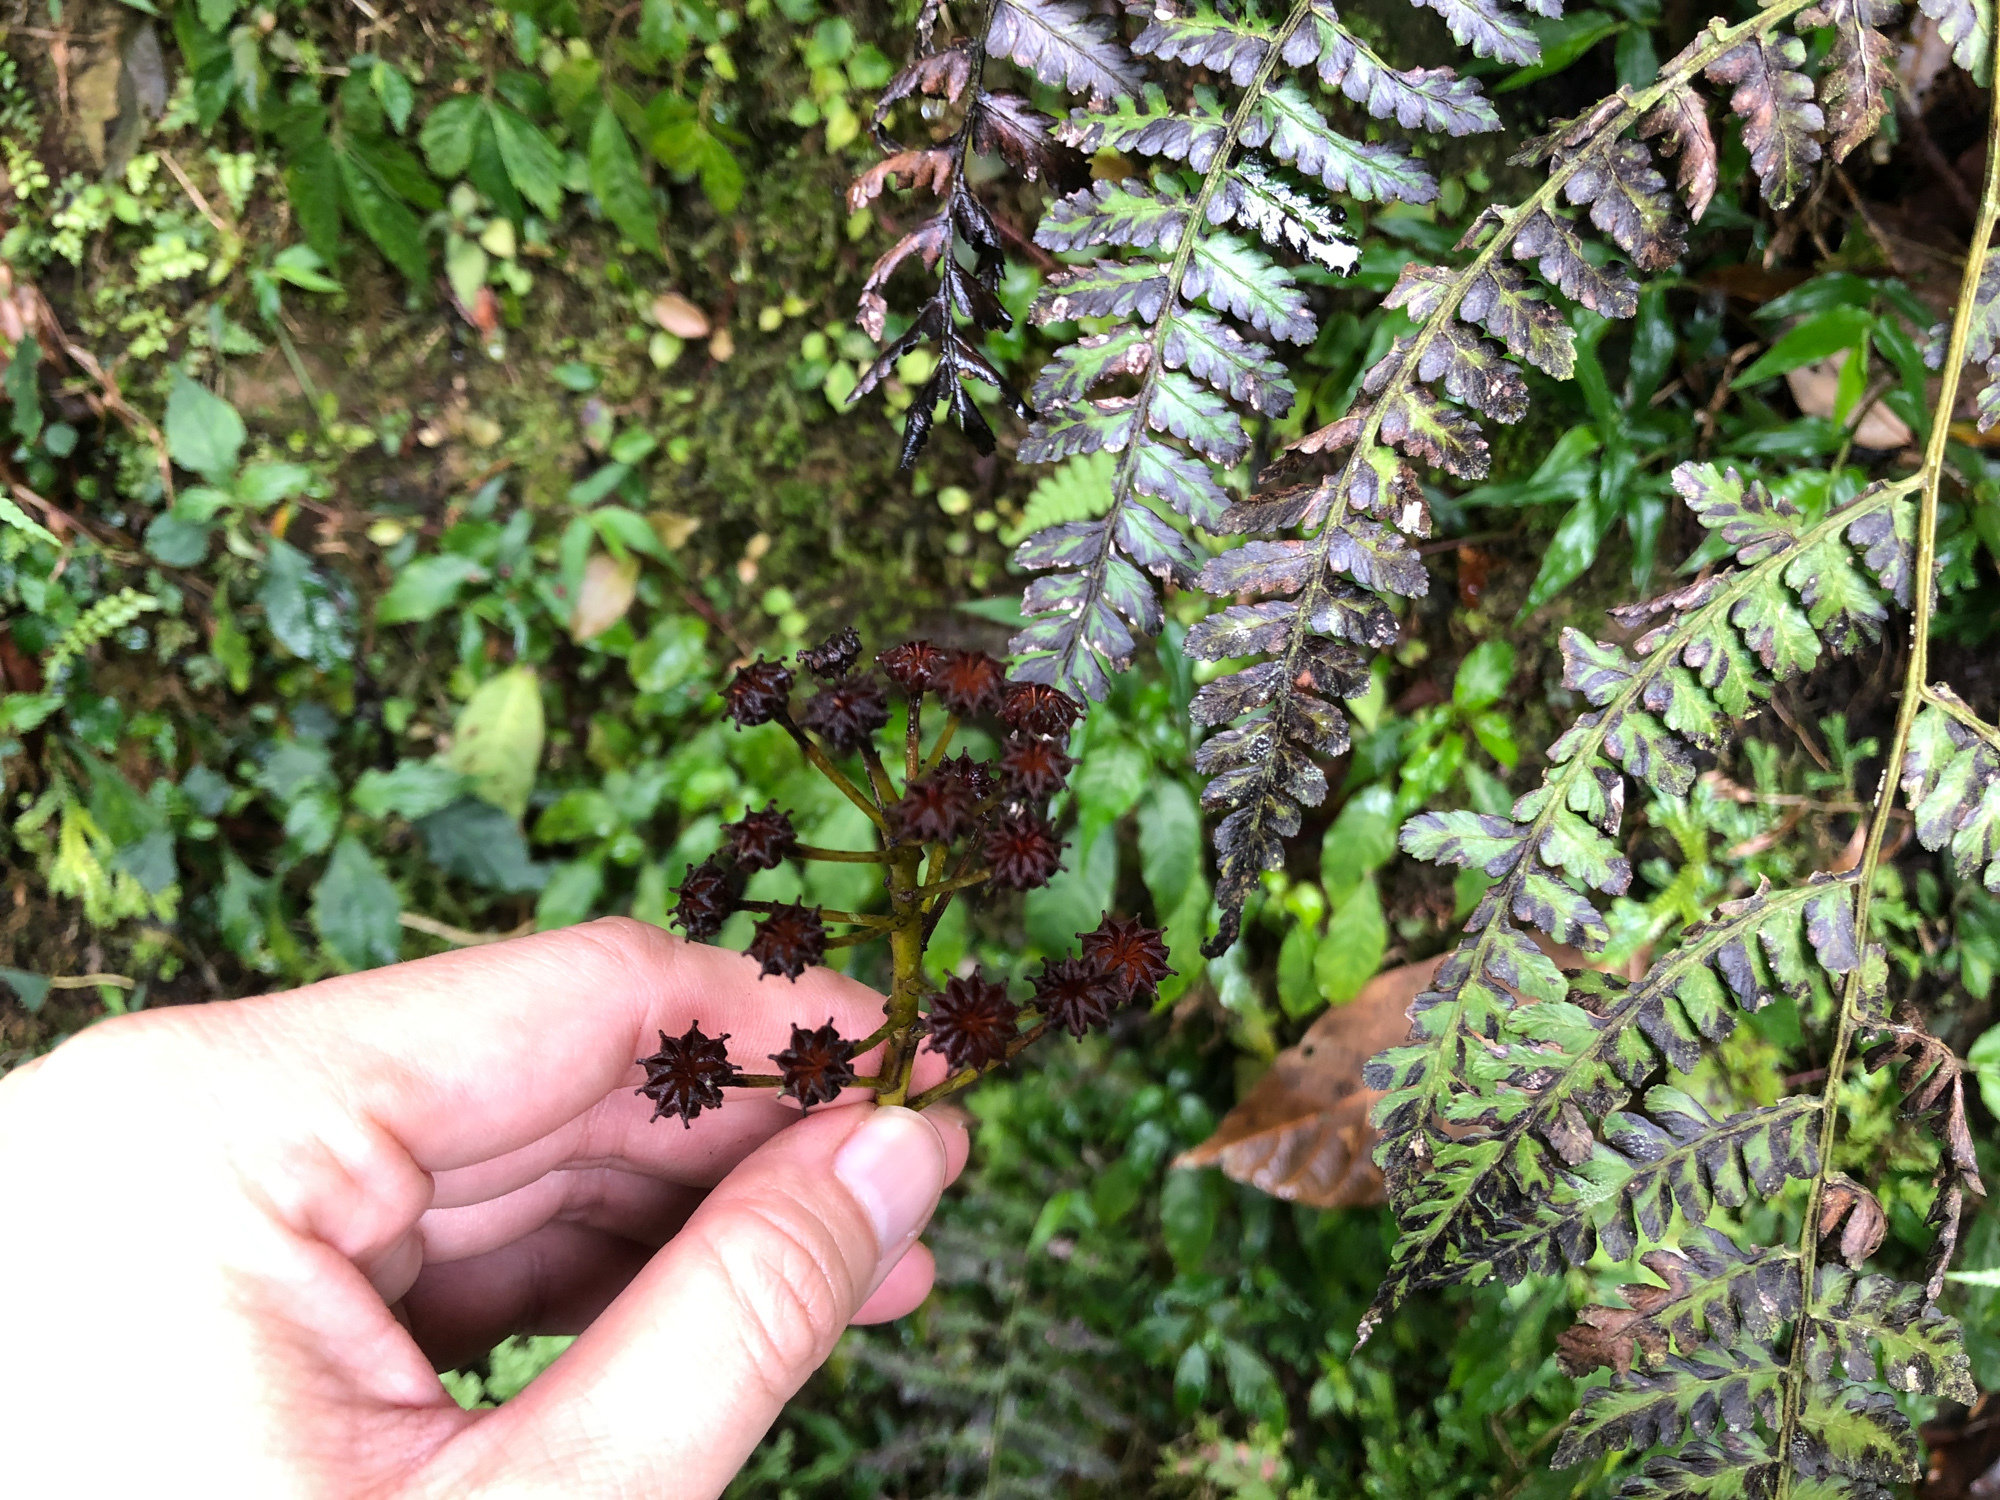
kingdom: Plantae
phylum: Tracheophyta
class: Magnoliopsida
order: Trochodendrales
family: Trochodendraceae
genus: Trochodendron
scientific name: Trochodendron aralioides
